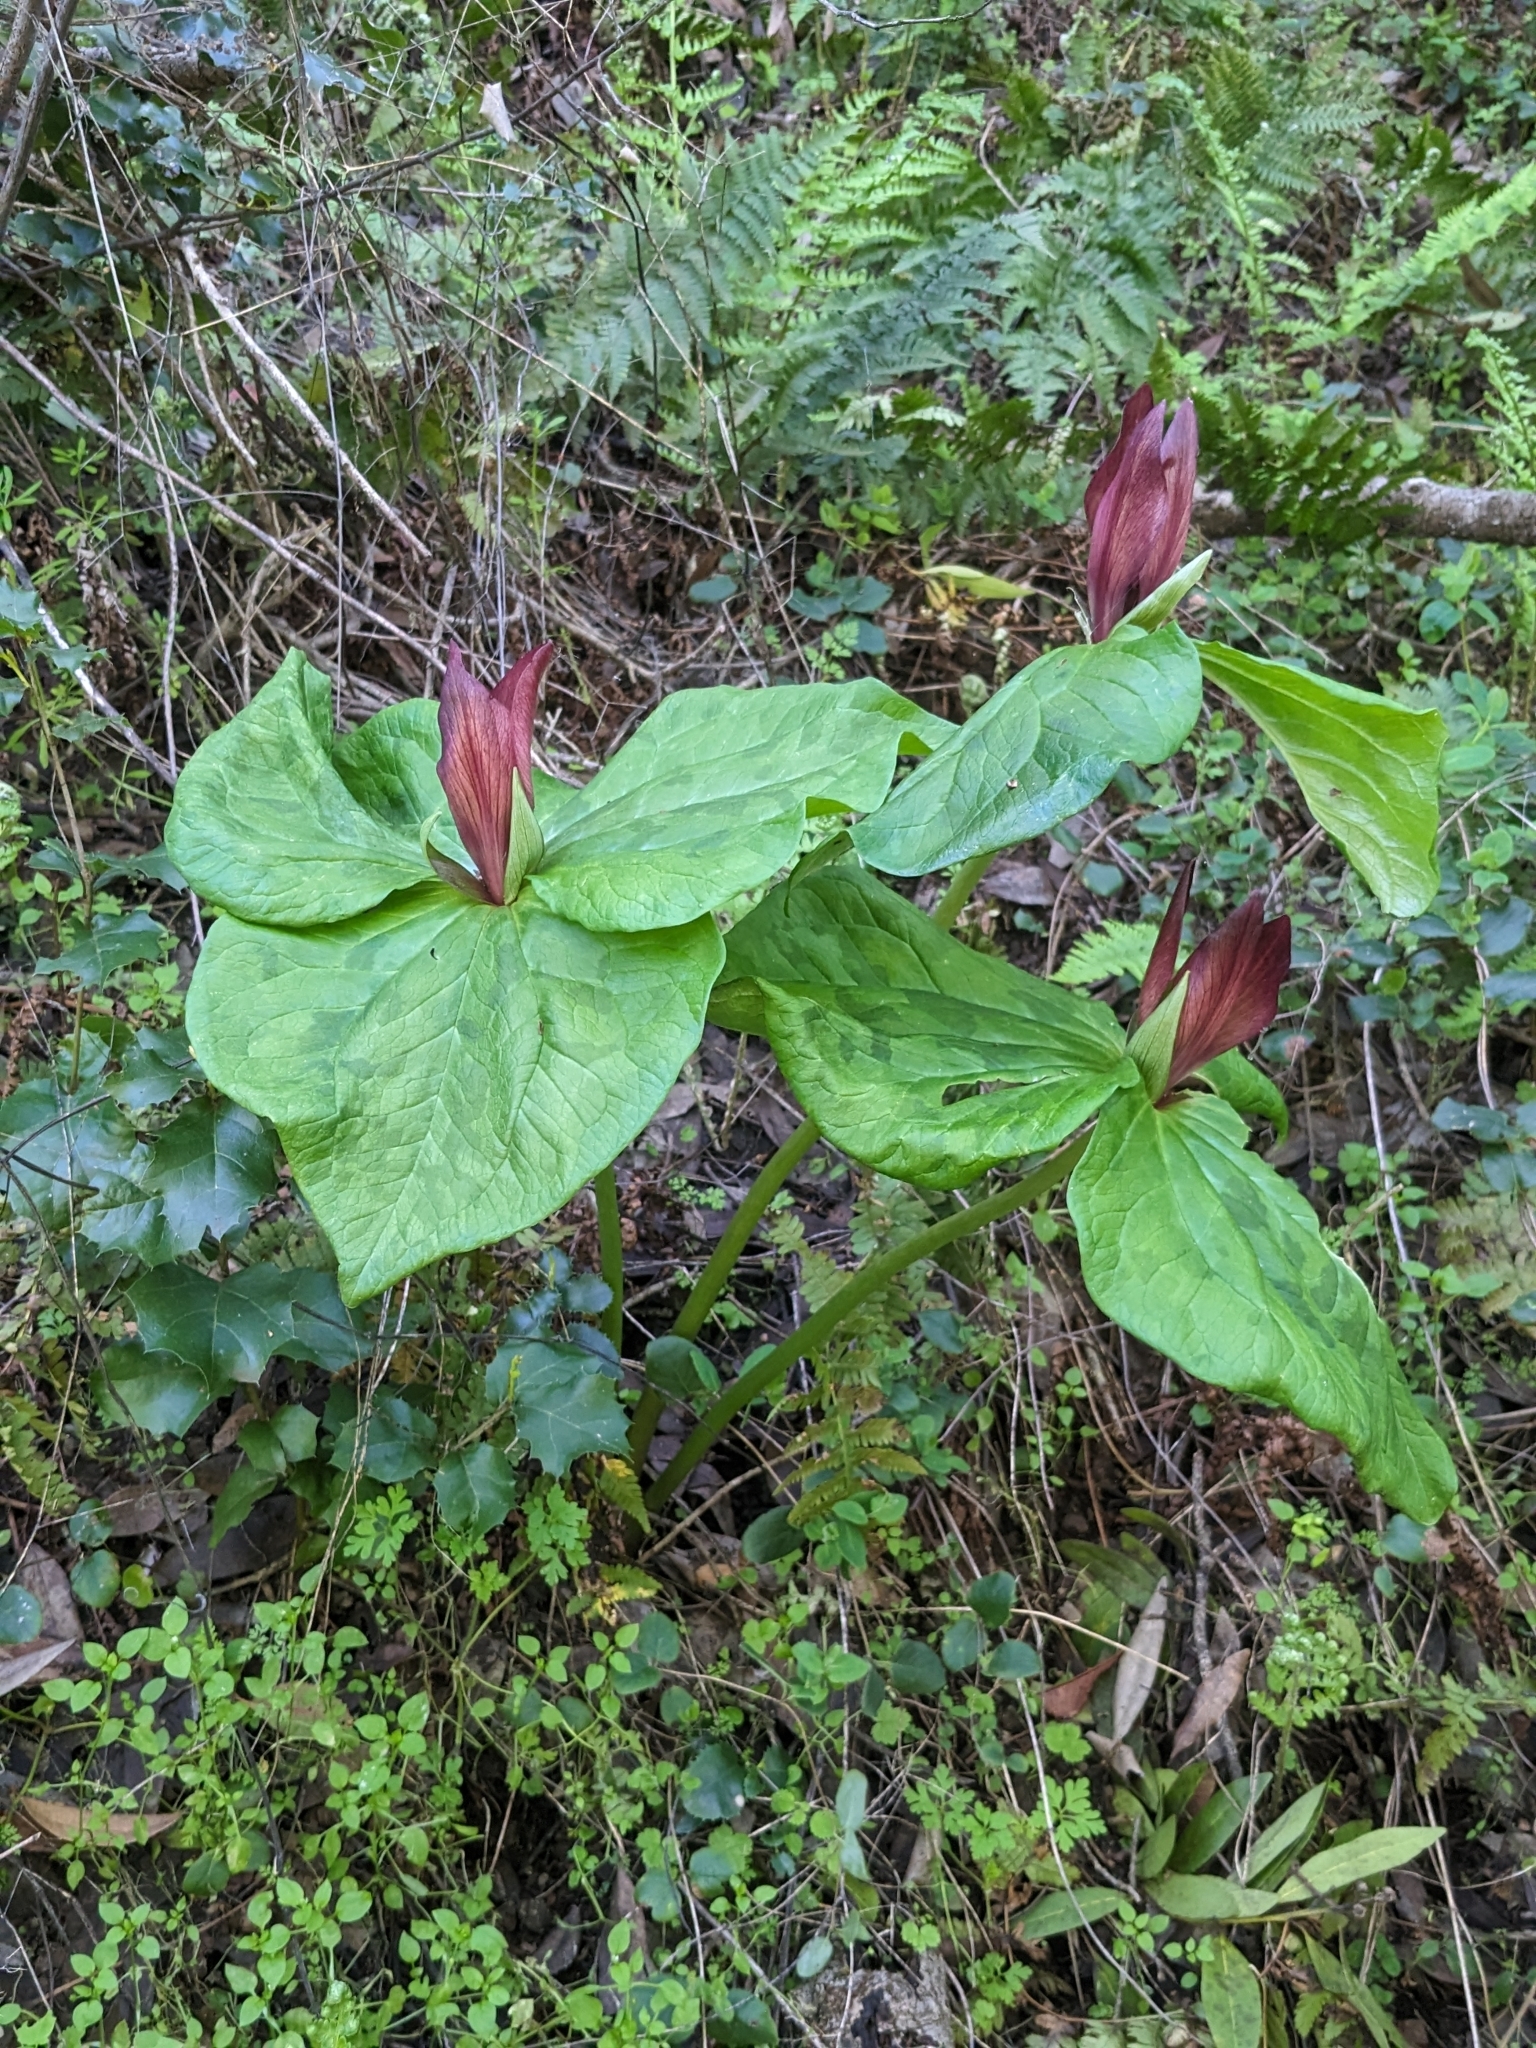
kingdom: Plantae
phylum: Tracheophyta
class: Liliopsida
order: Liliales
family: Melanthiaceae
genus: Trillium
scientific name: Trillium chloropetalum
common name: Giant trillium
